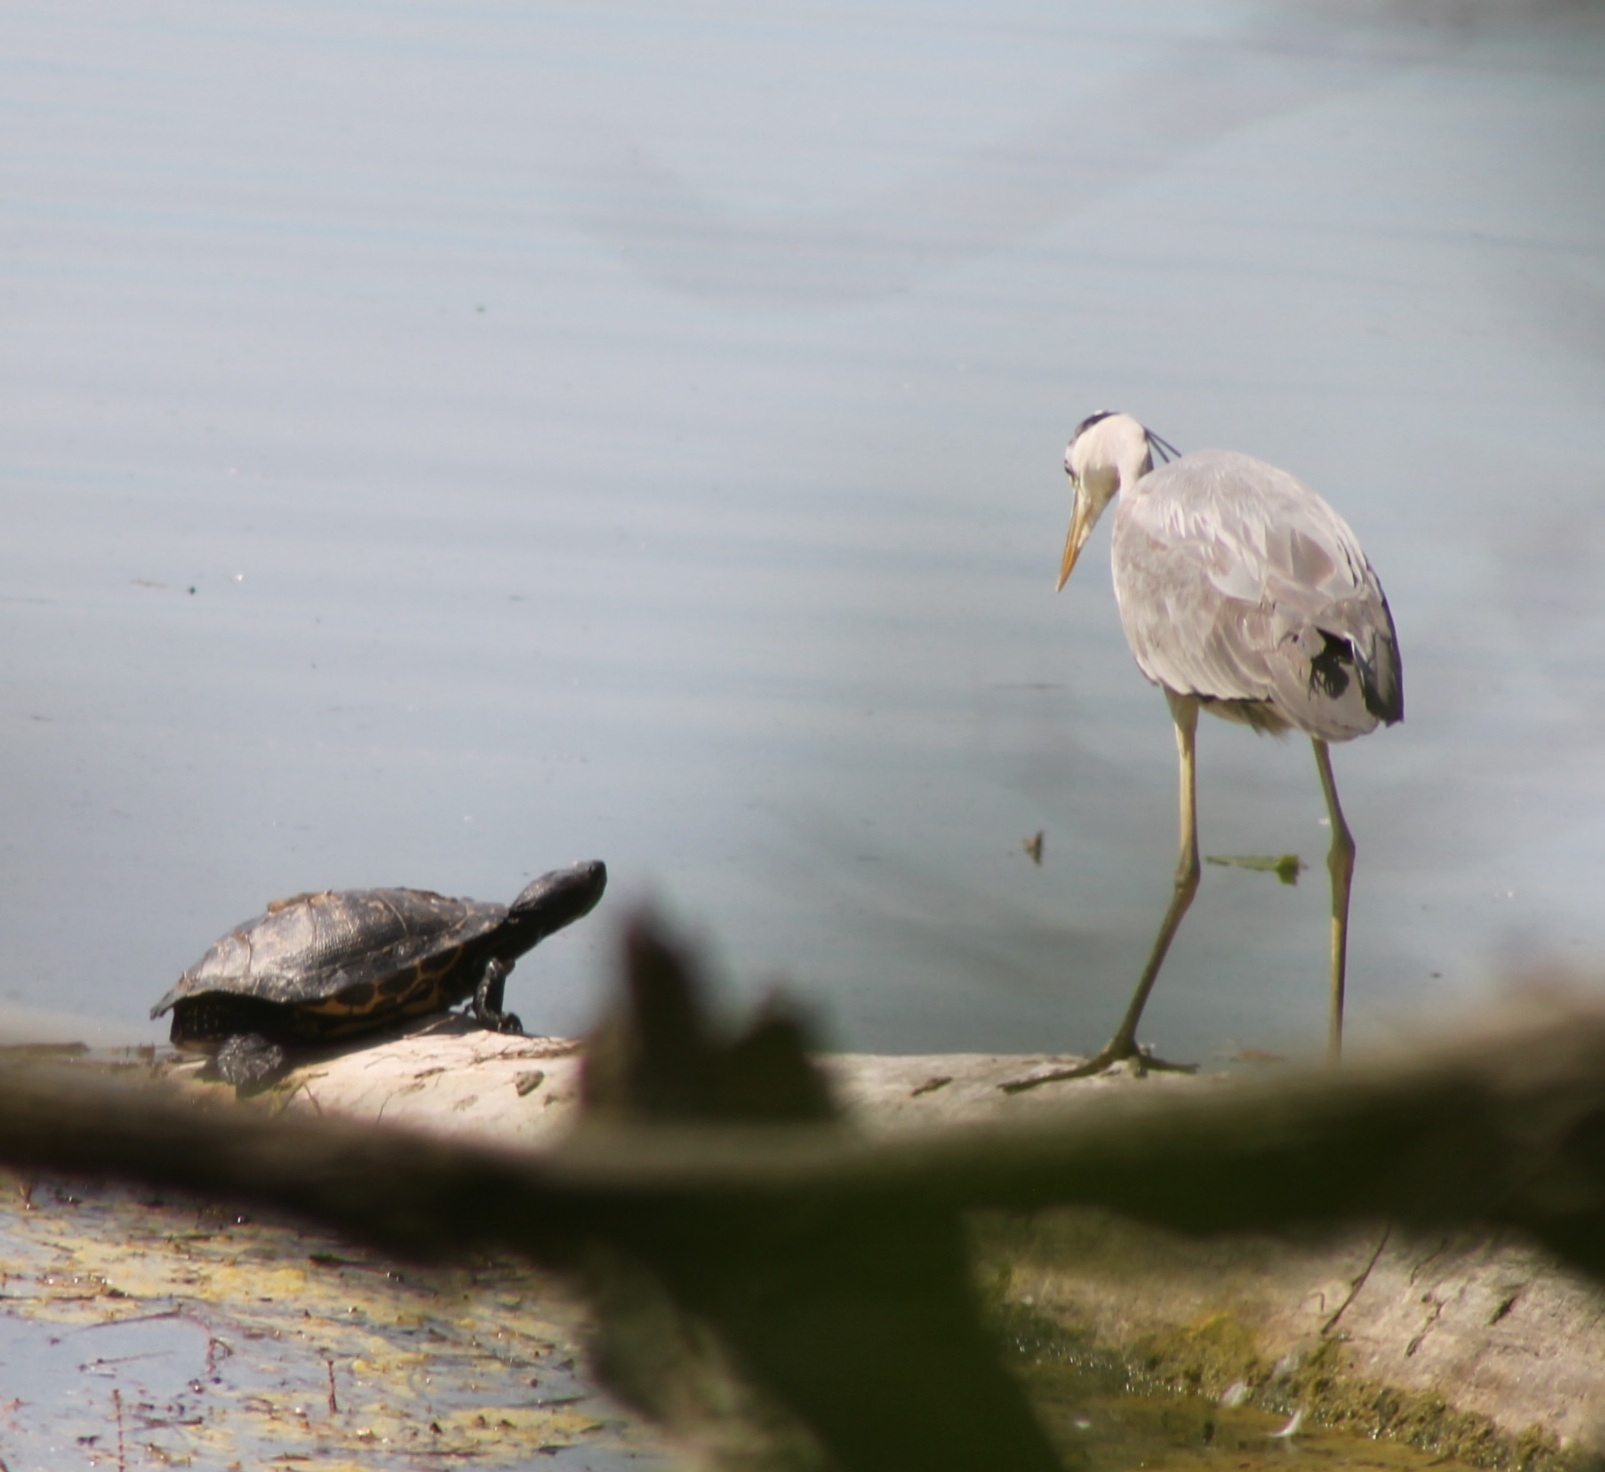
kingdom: Animalia
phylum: Chordata
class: Testudines
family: Emydidae
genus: Trachemys
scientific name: Trachemys scripta
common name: Slider
